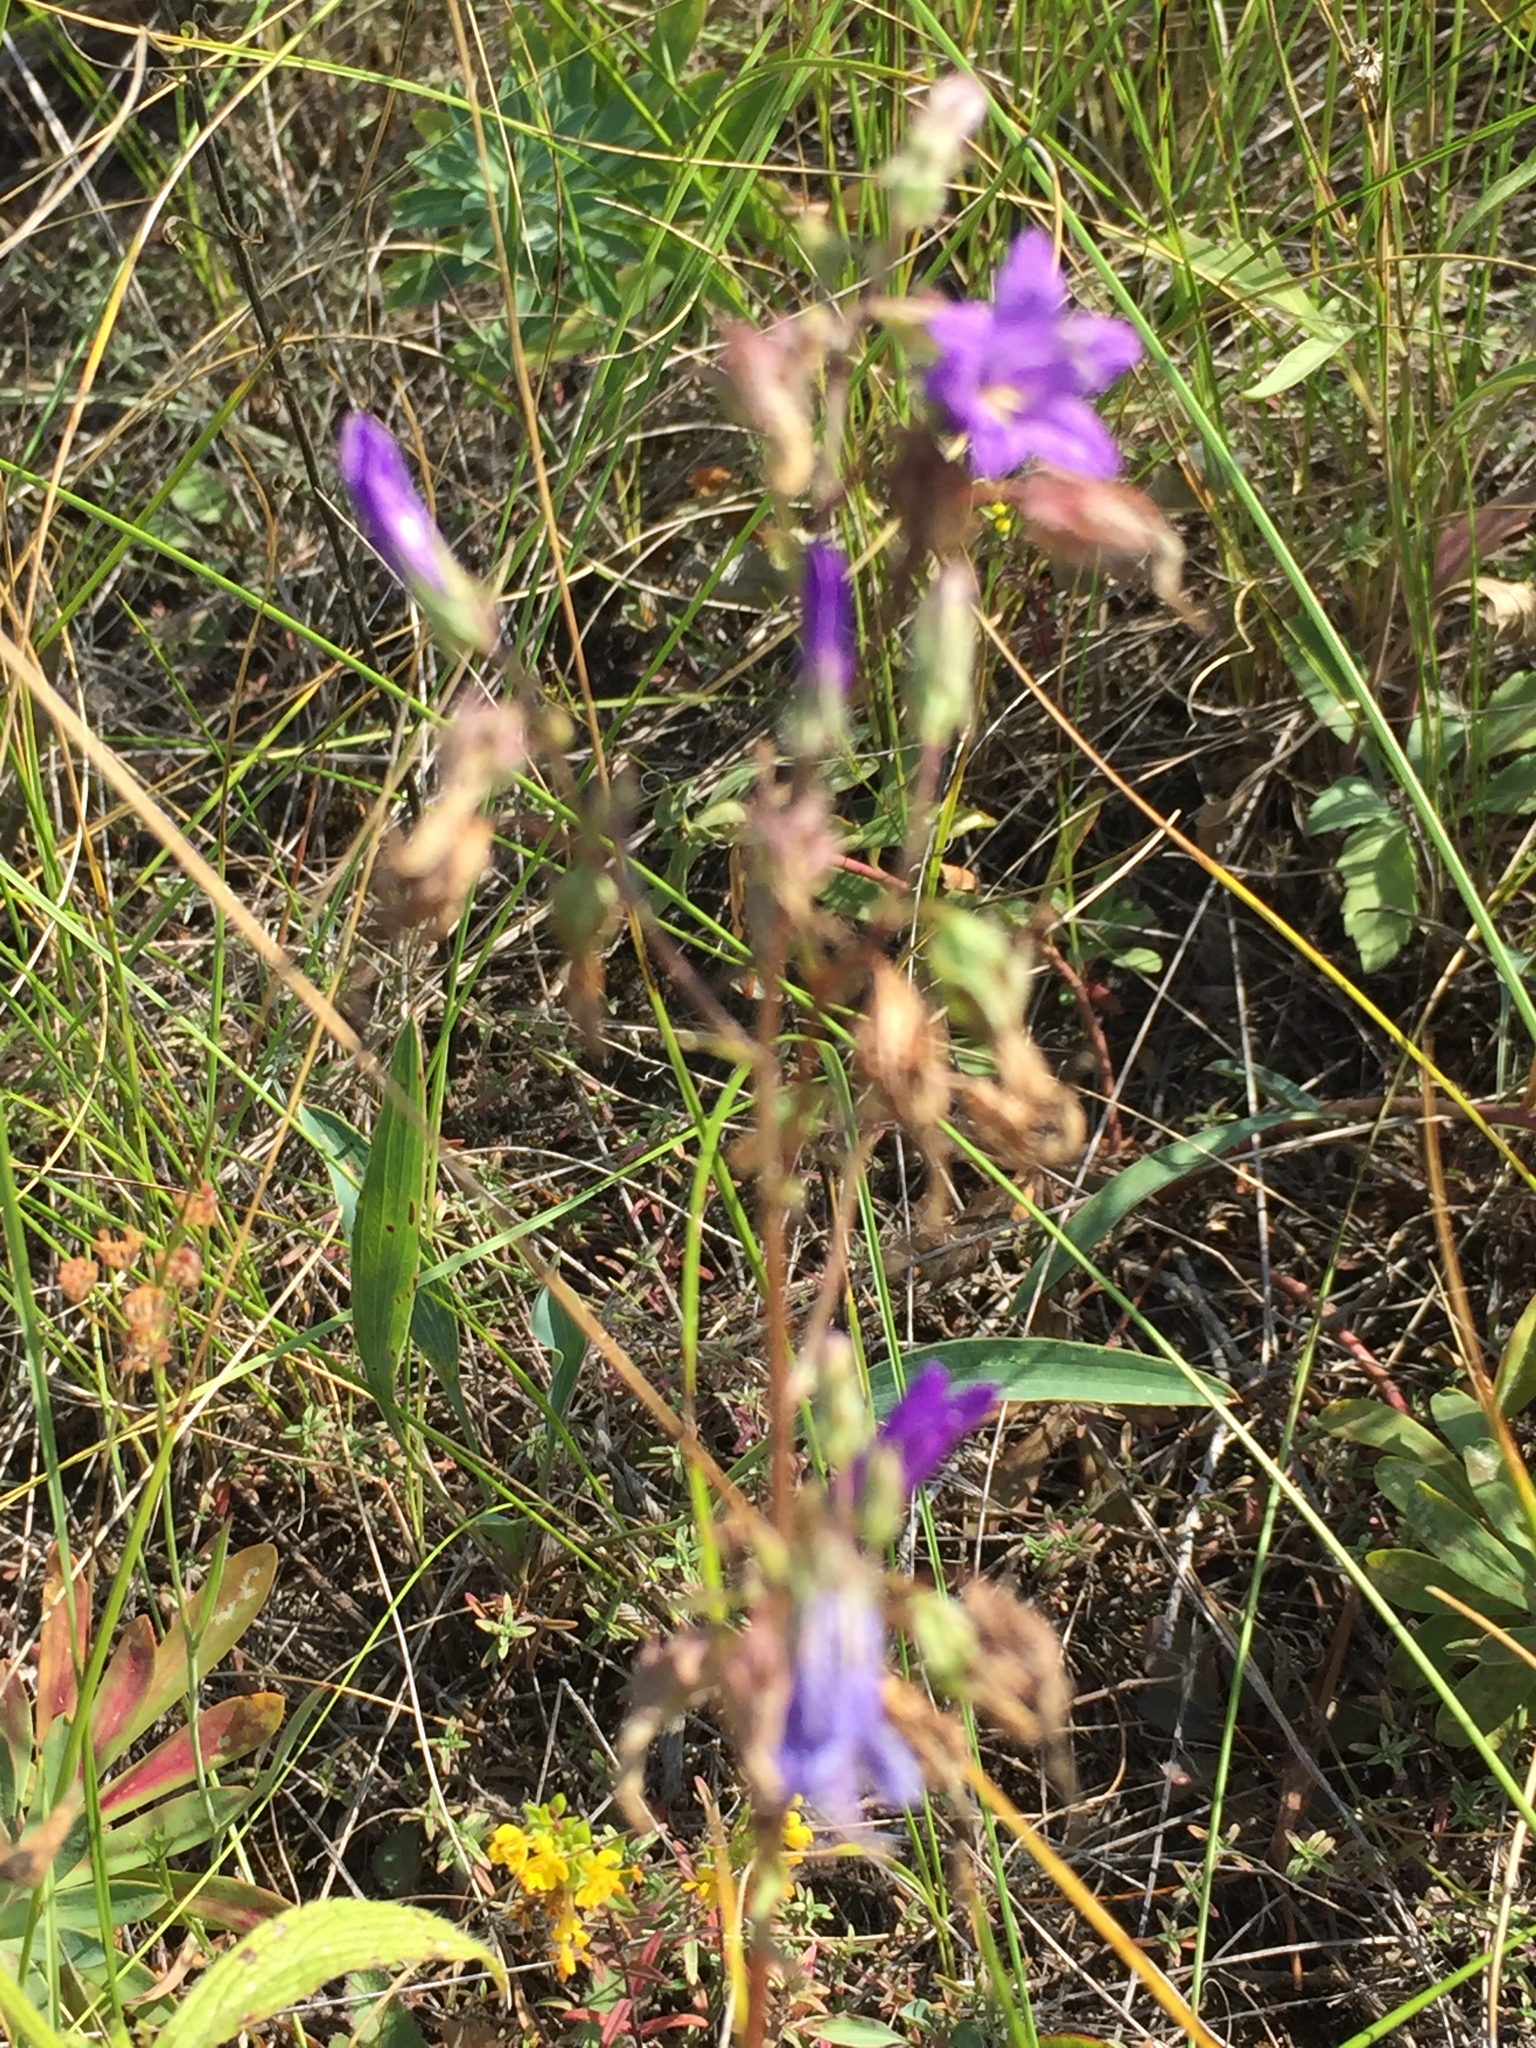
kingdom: Plantae
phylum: Tracheophyta
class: Magnoliopsida
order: Asterales
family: Campanulaceae
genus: Campanula
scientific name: Campanula sibirica
